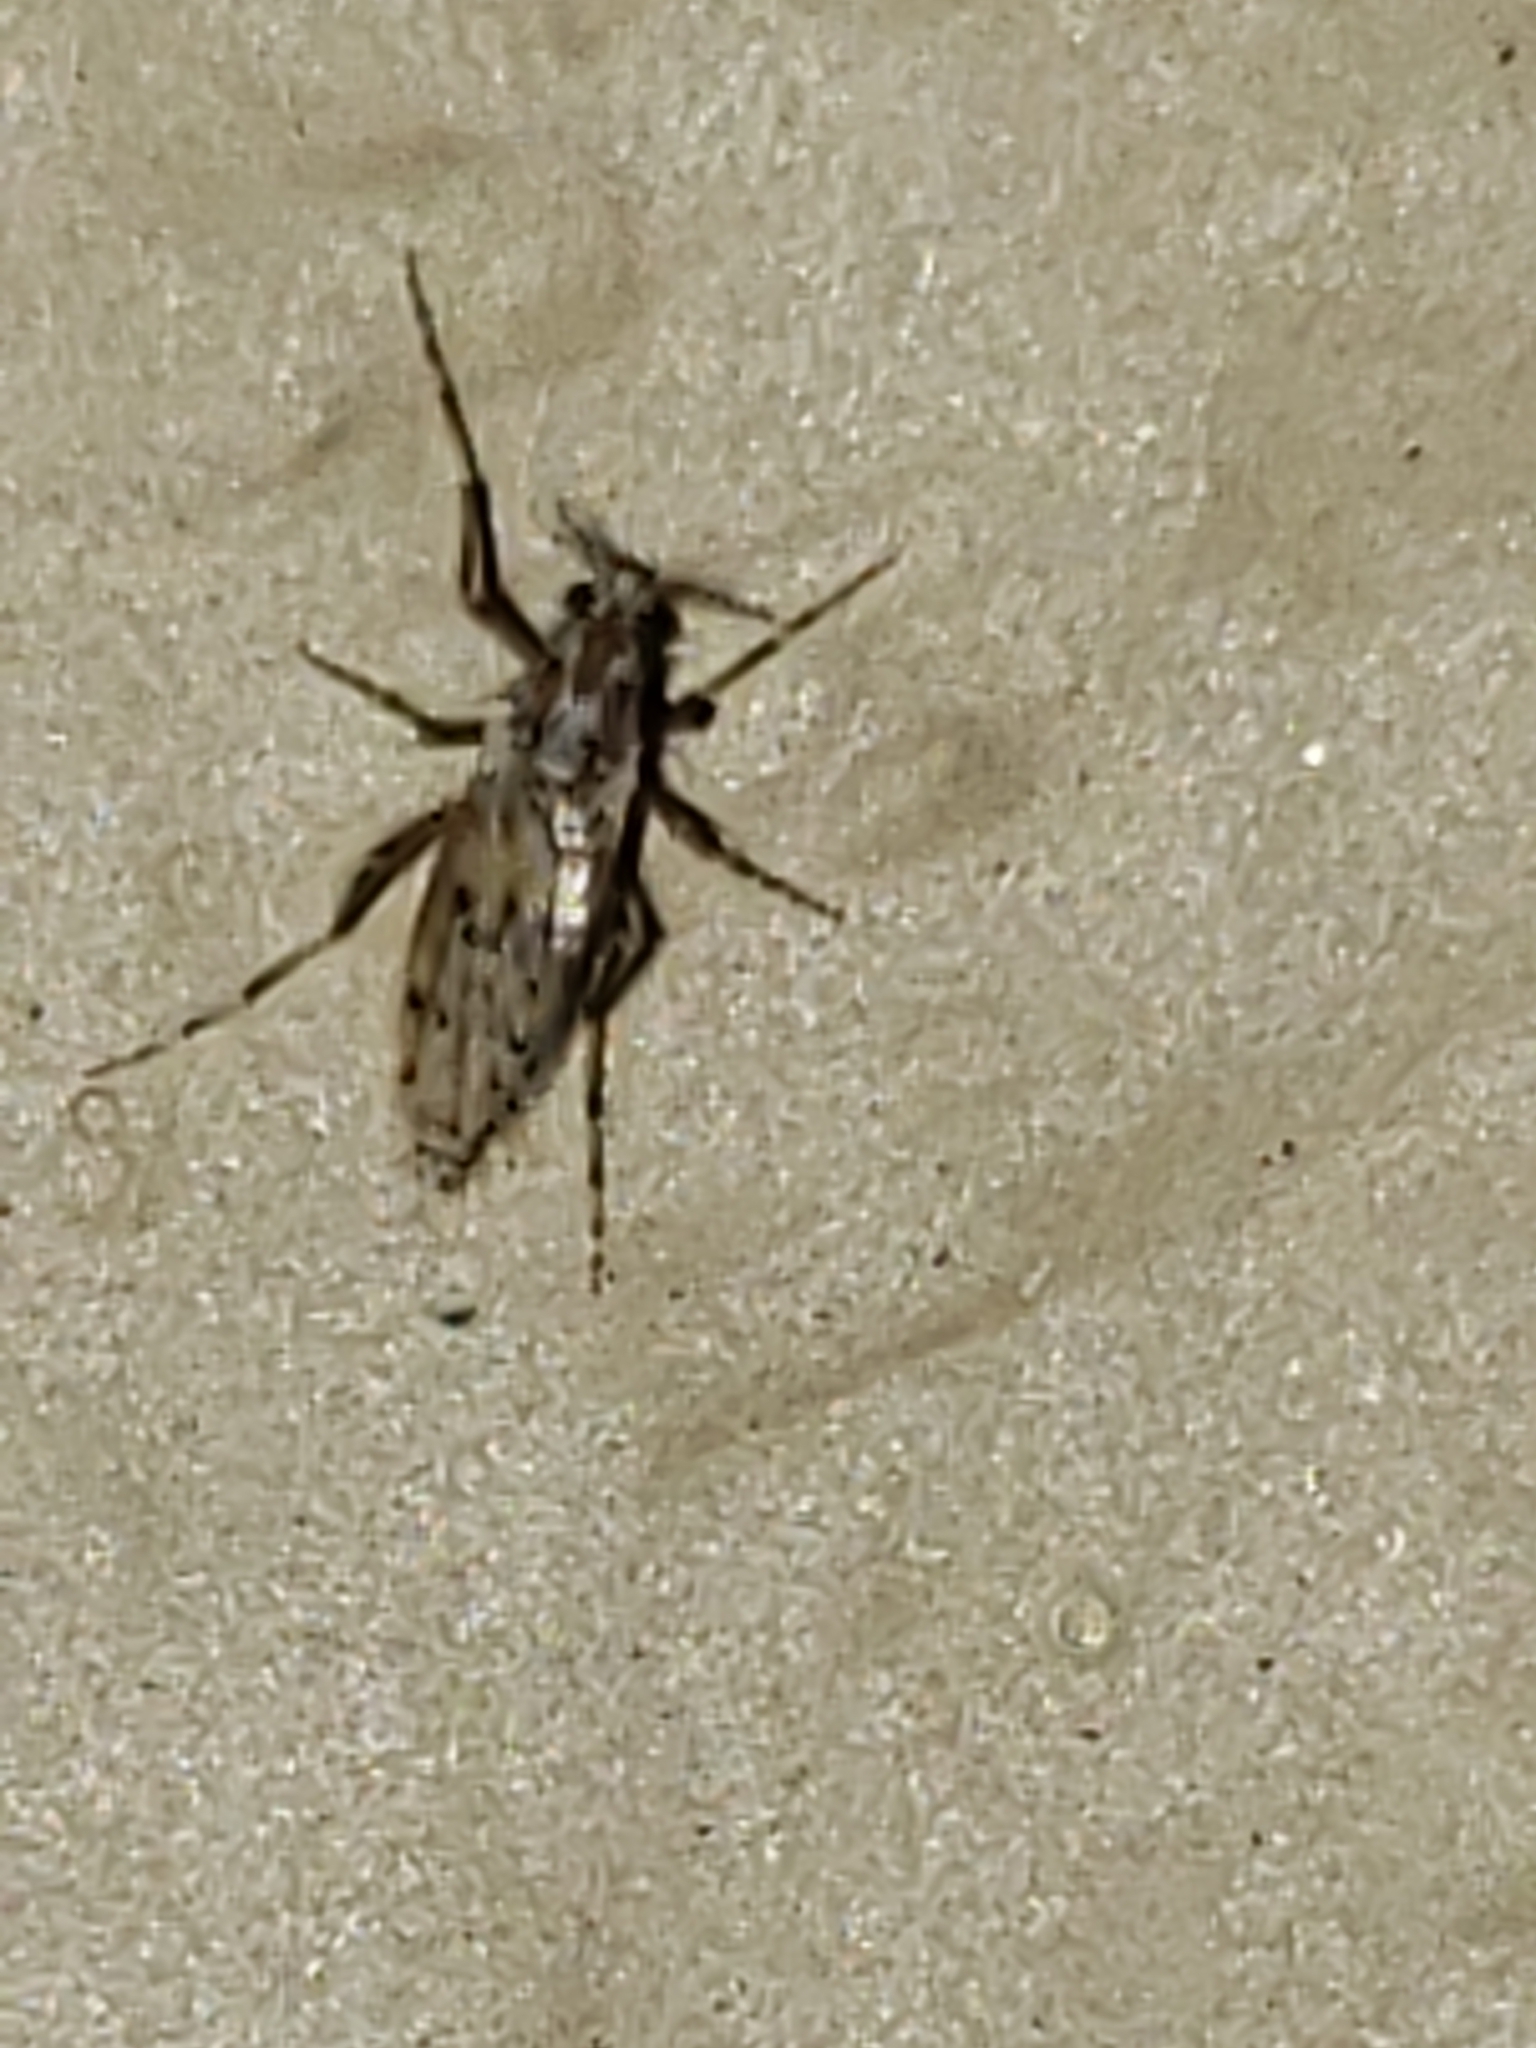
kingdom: Animalia
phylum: Arthropoda
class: Insecta
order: Diptera
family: Chaoboridae
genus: Chaoborus
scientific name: Chaoborus punctipennis
